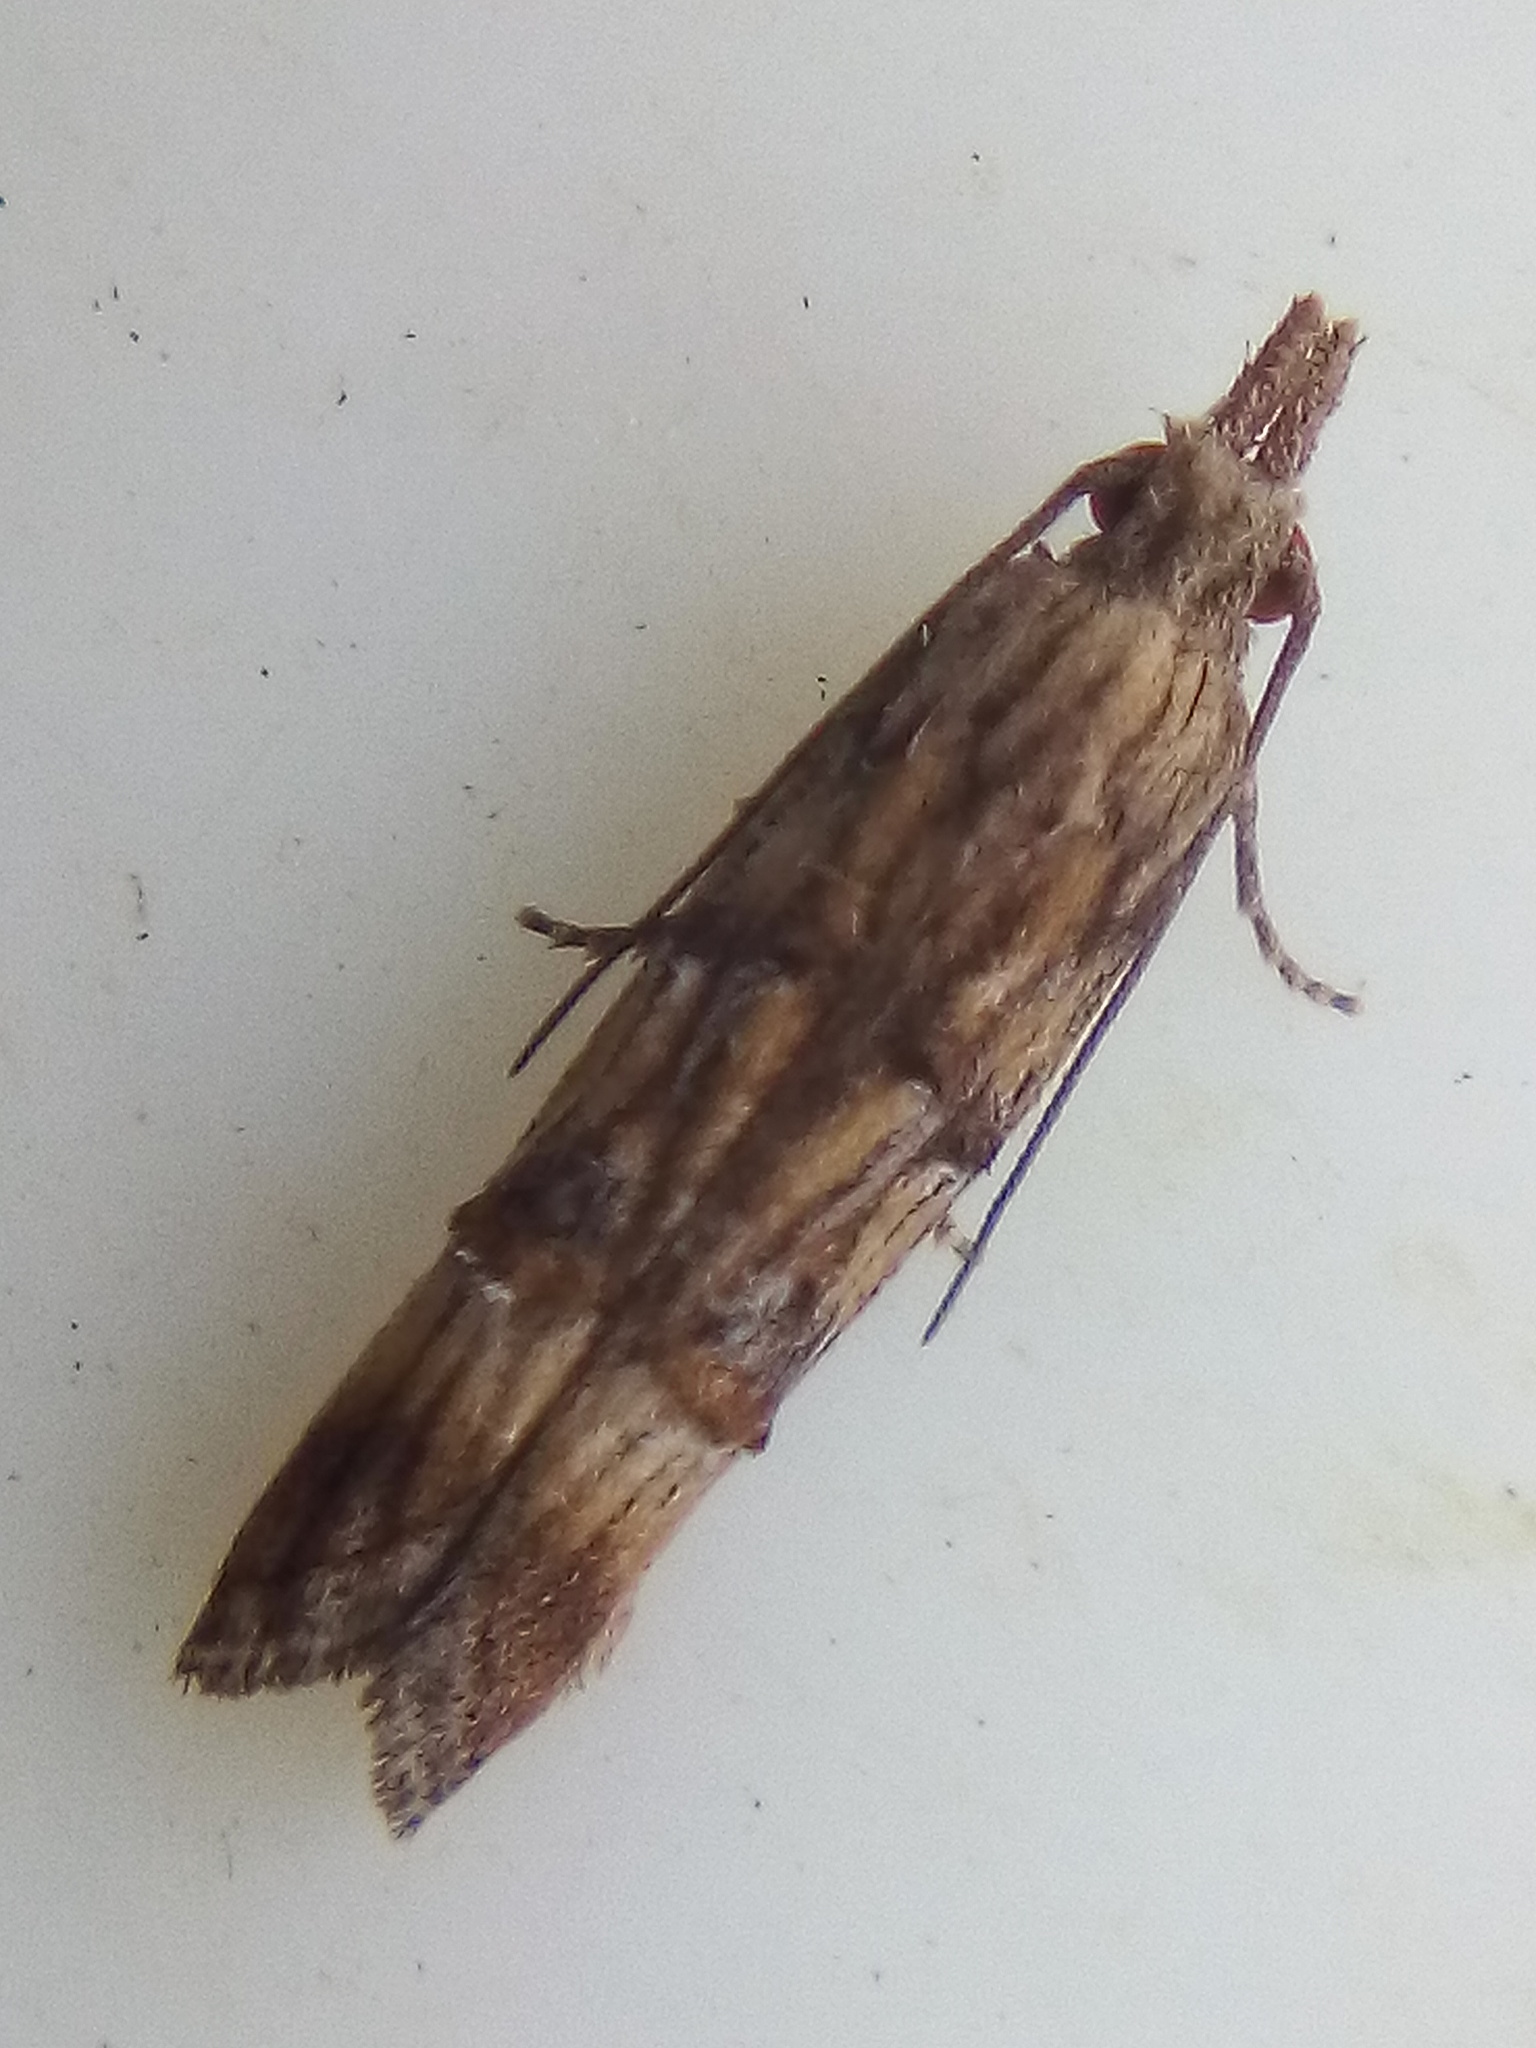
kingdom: Animalia
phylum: Arthropoda
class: Insecta
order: Lepidoptera
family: Carposinidae
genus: Carposina
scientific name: Carposina neurophorella
